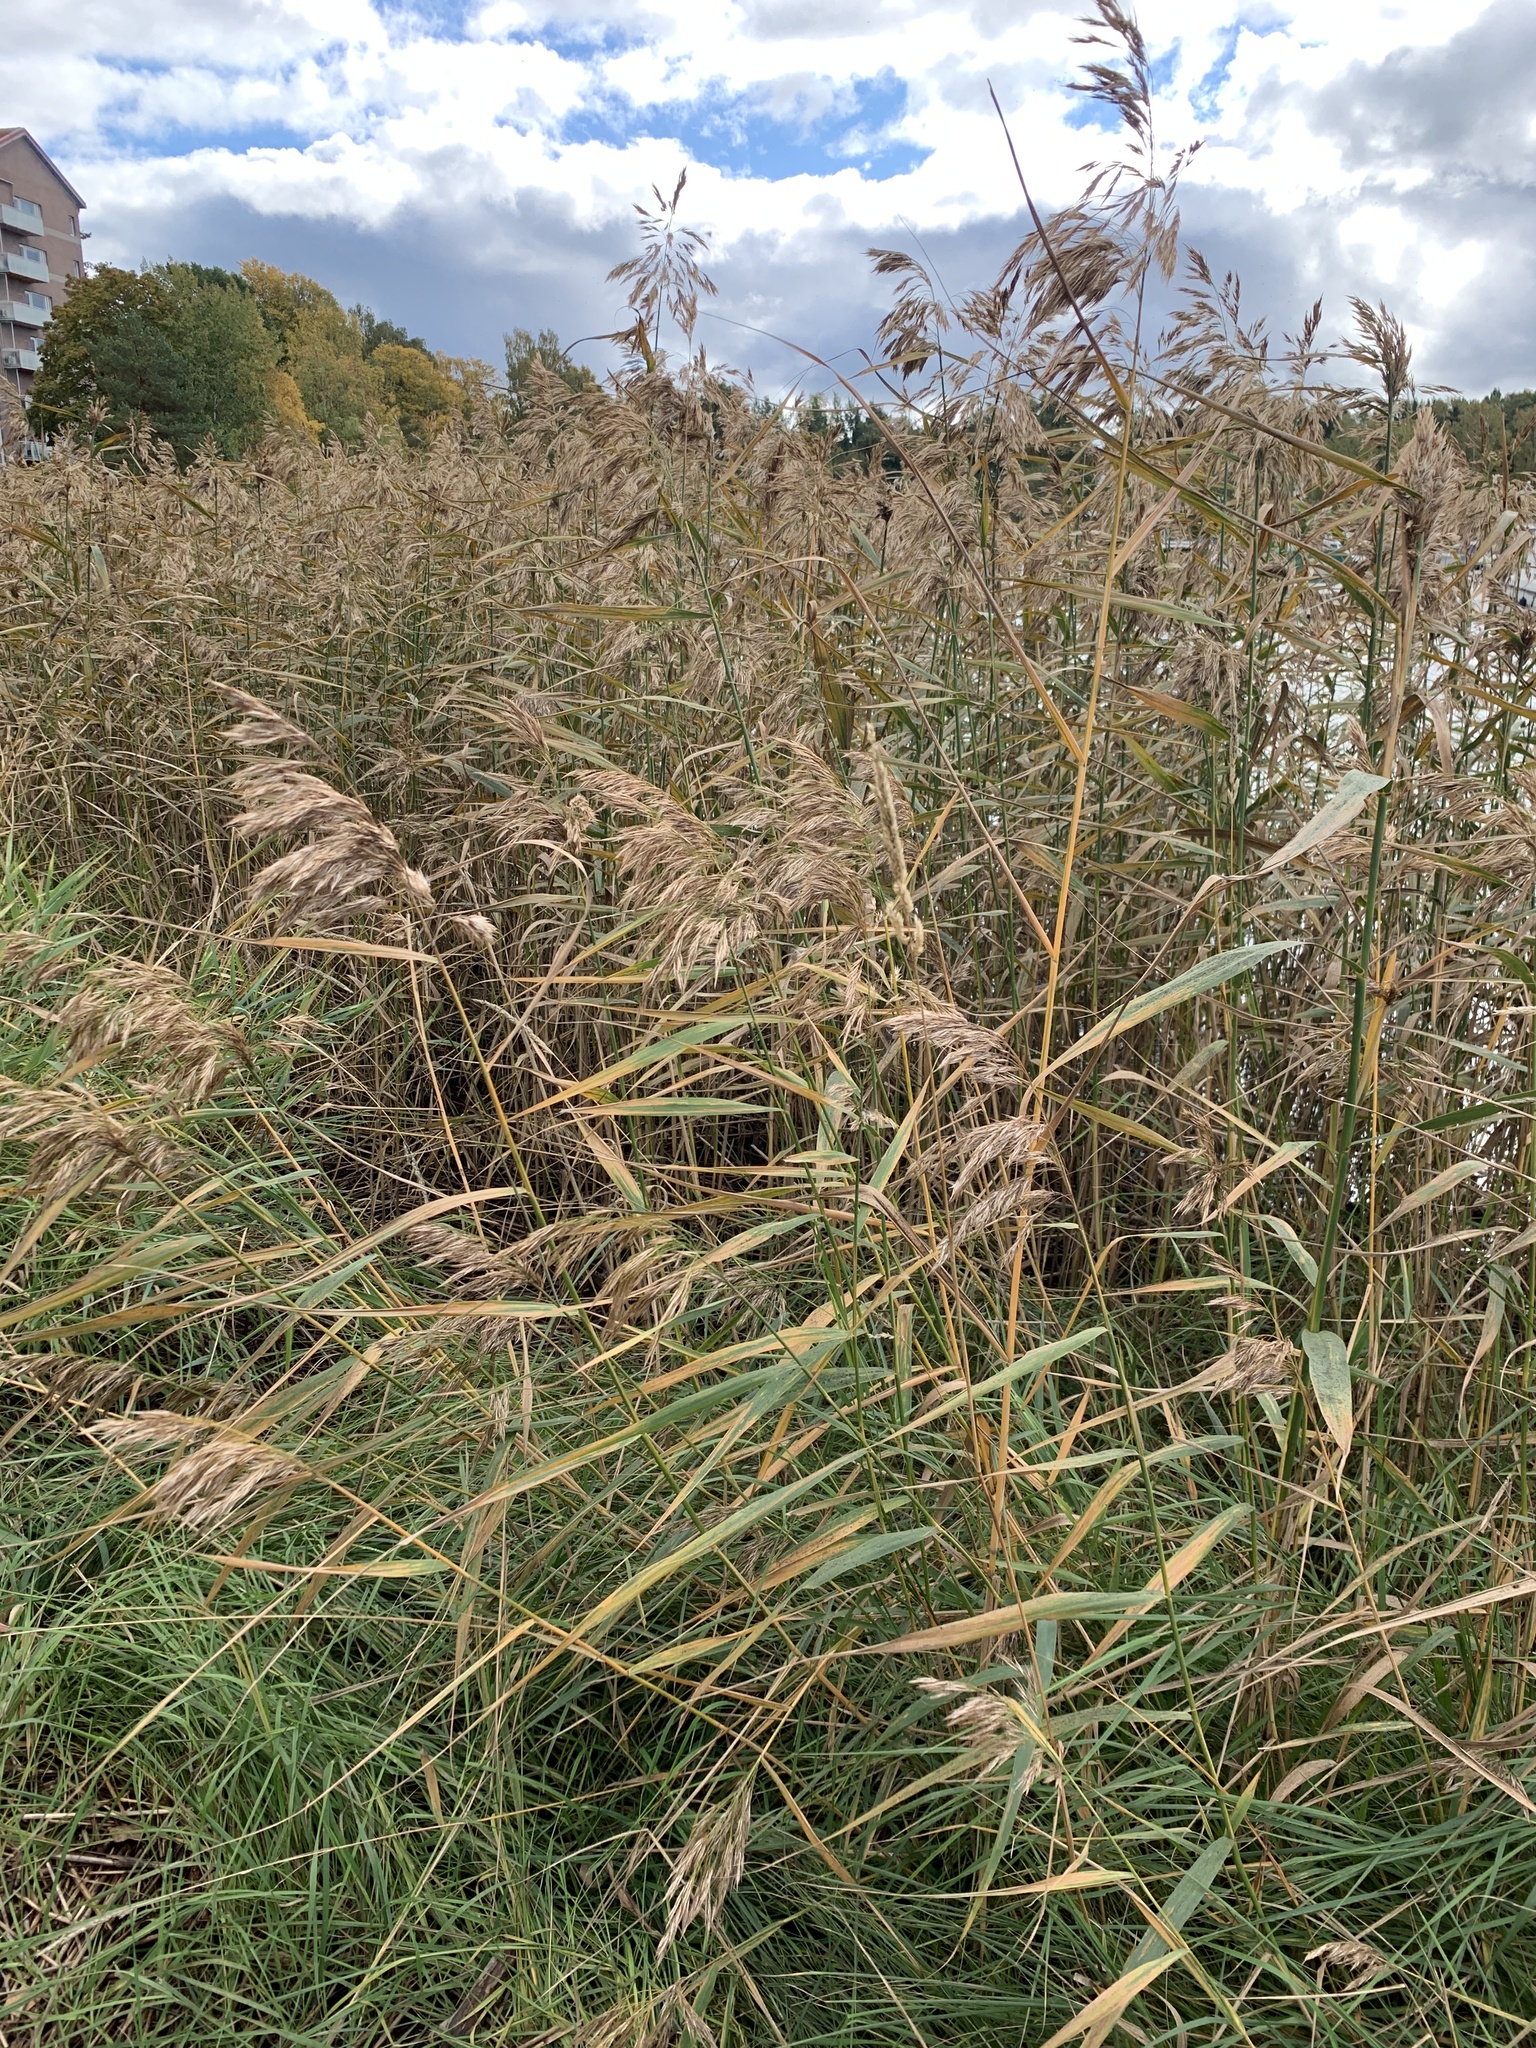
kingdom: Plantae
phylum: Tracheophyta
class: Liliopsida
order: Poales
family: Poaceae
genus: Phragmites
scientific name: Phragmites australis
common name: Common reed
